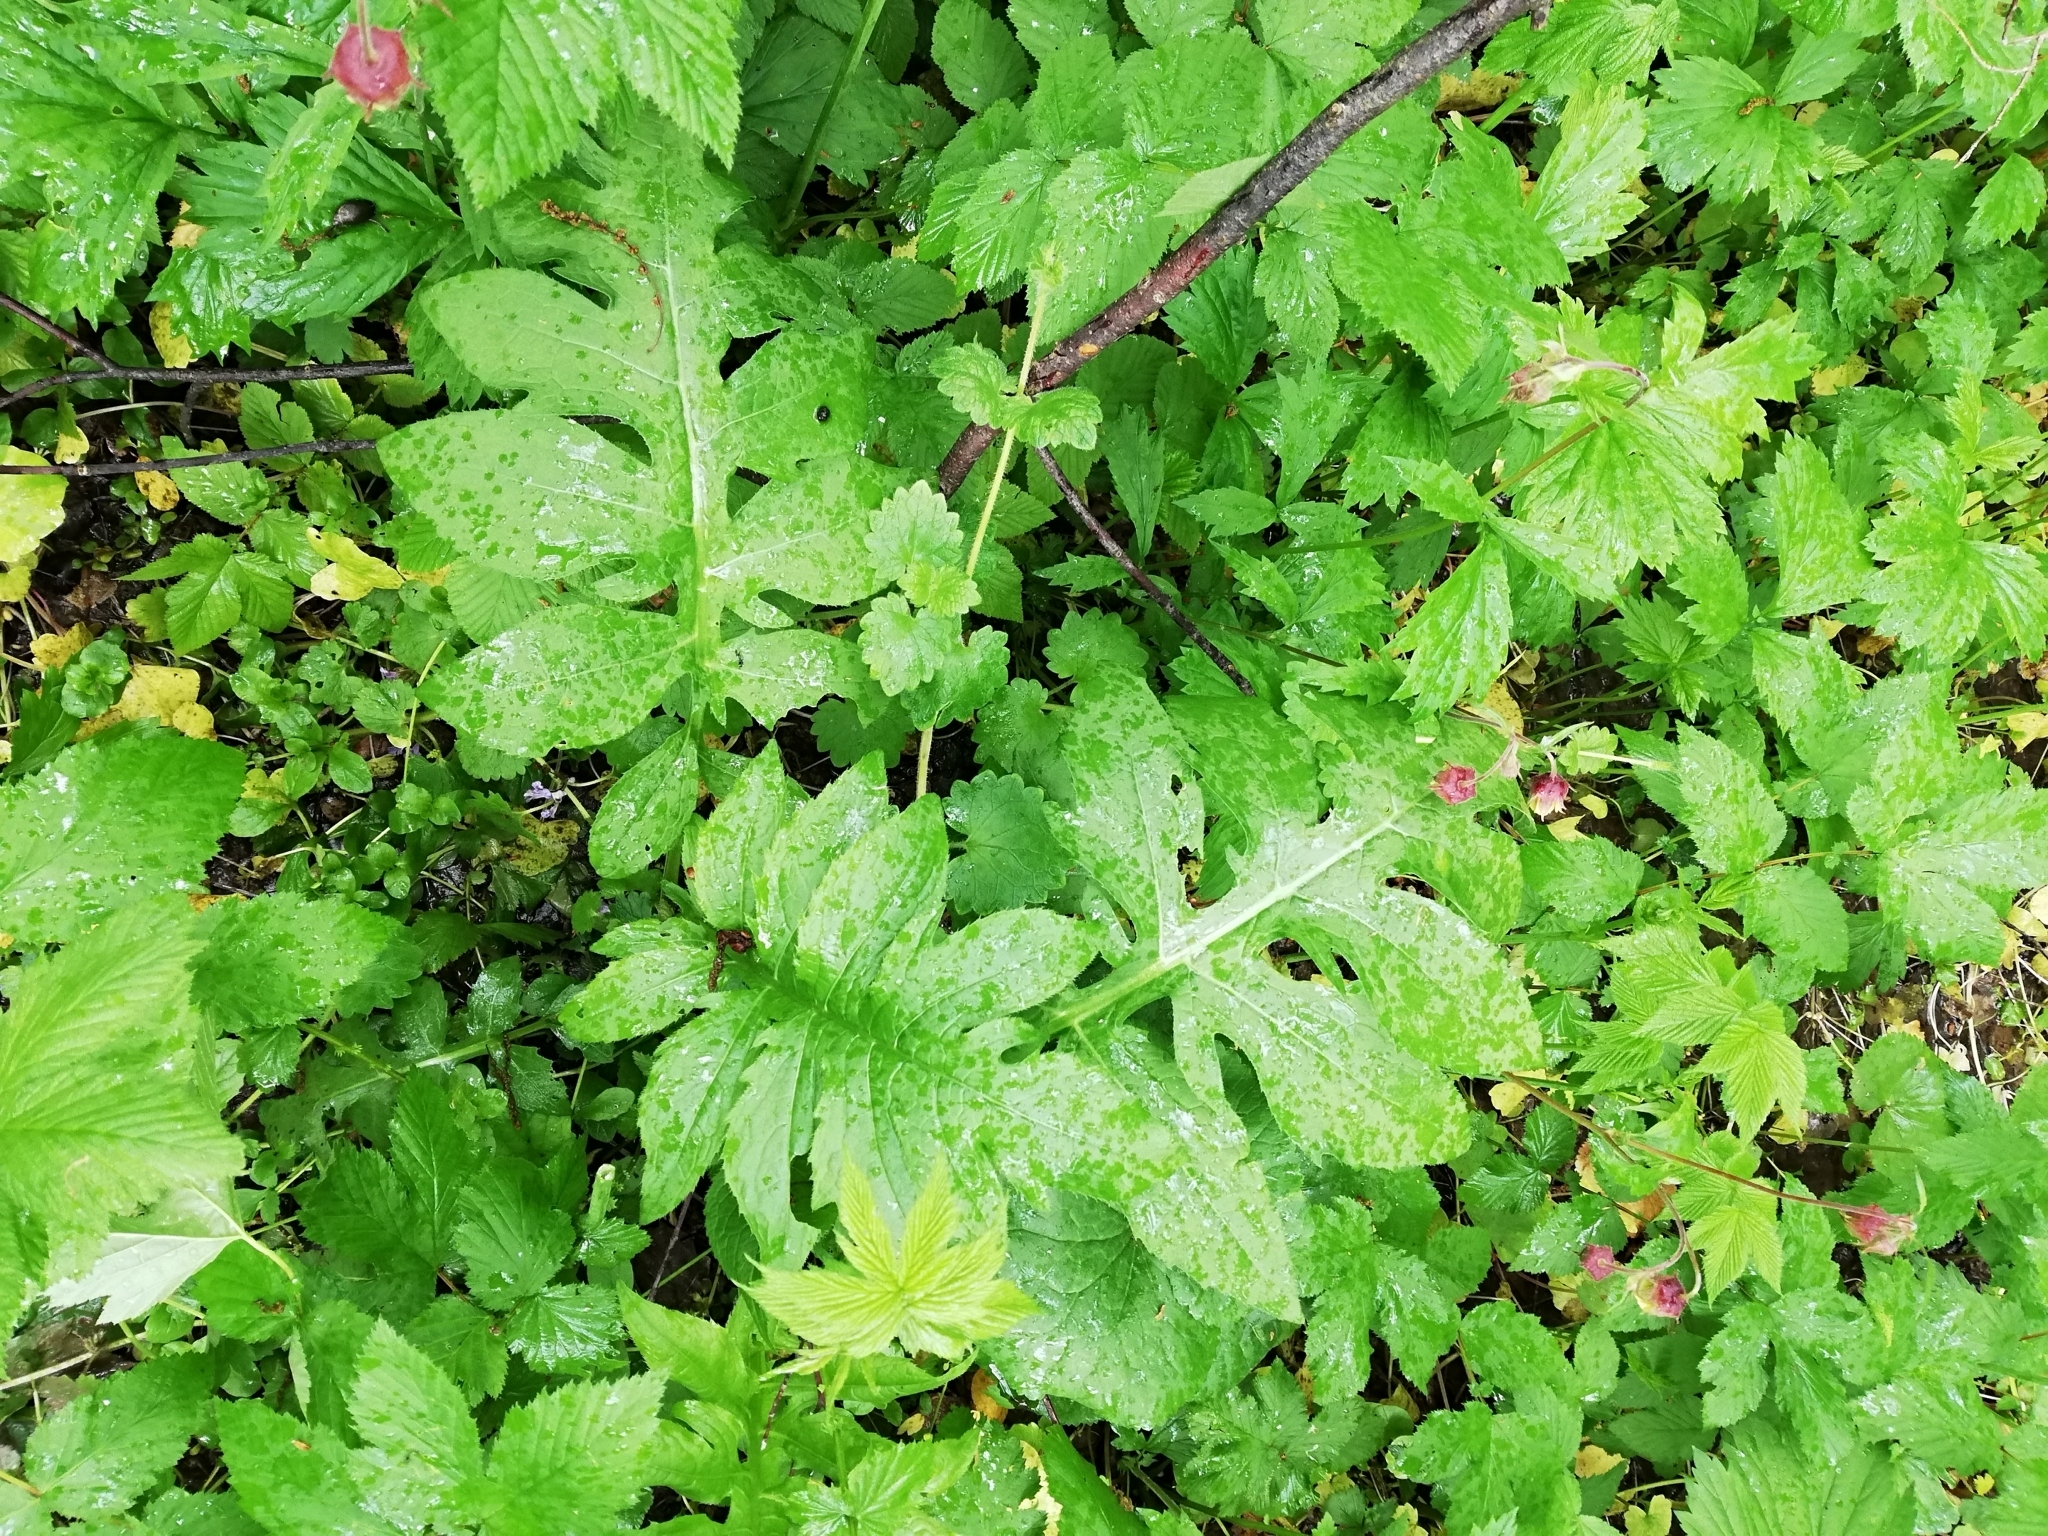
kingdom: Plantae
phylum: Tracheophyta
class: Magnoliopsida
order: Asterales
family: Asteraceae
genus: Cirsium
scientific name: Cirsium oleraceum
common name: Cabbage thistle
